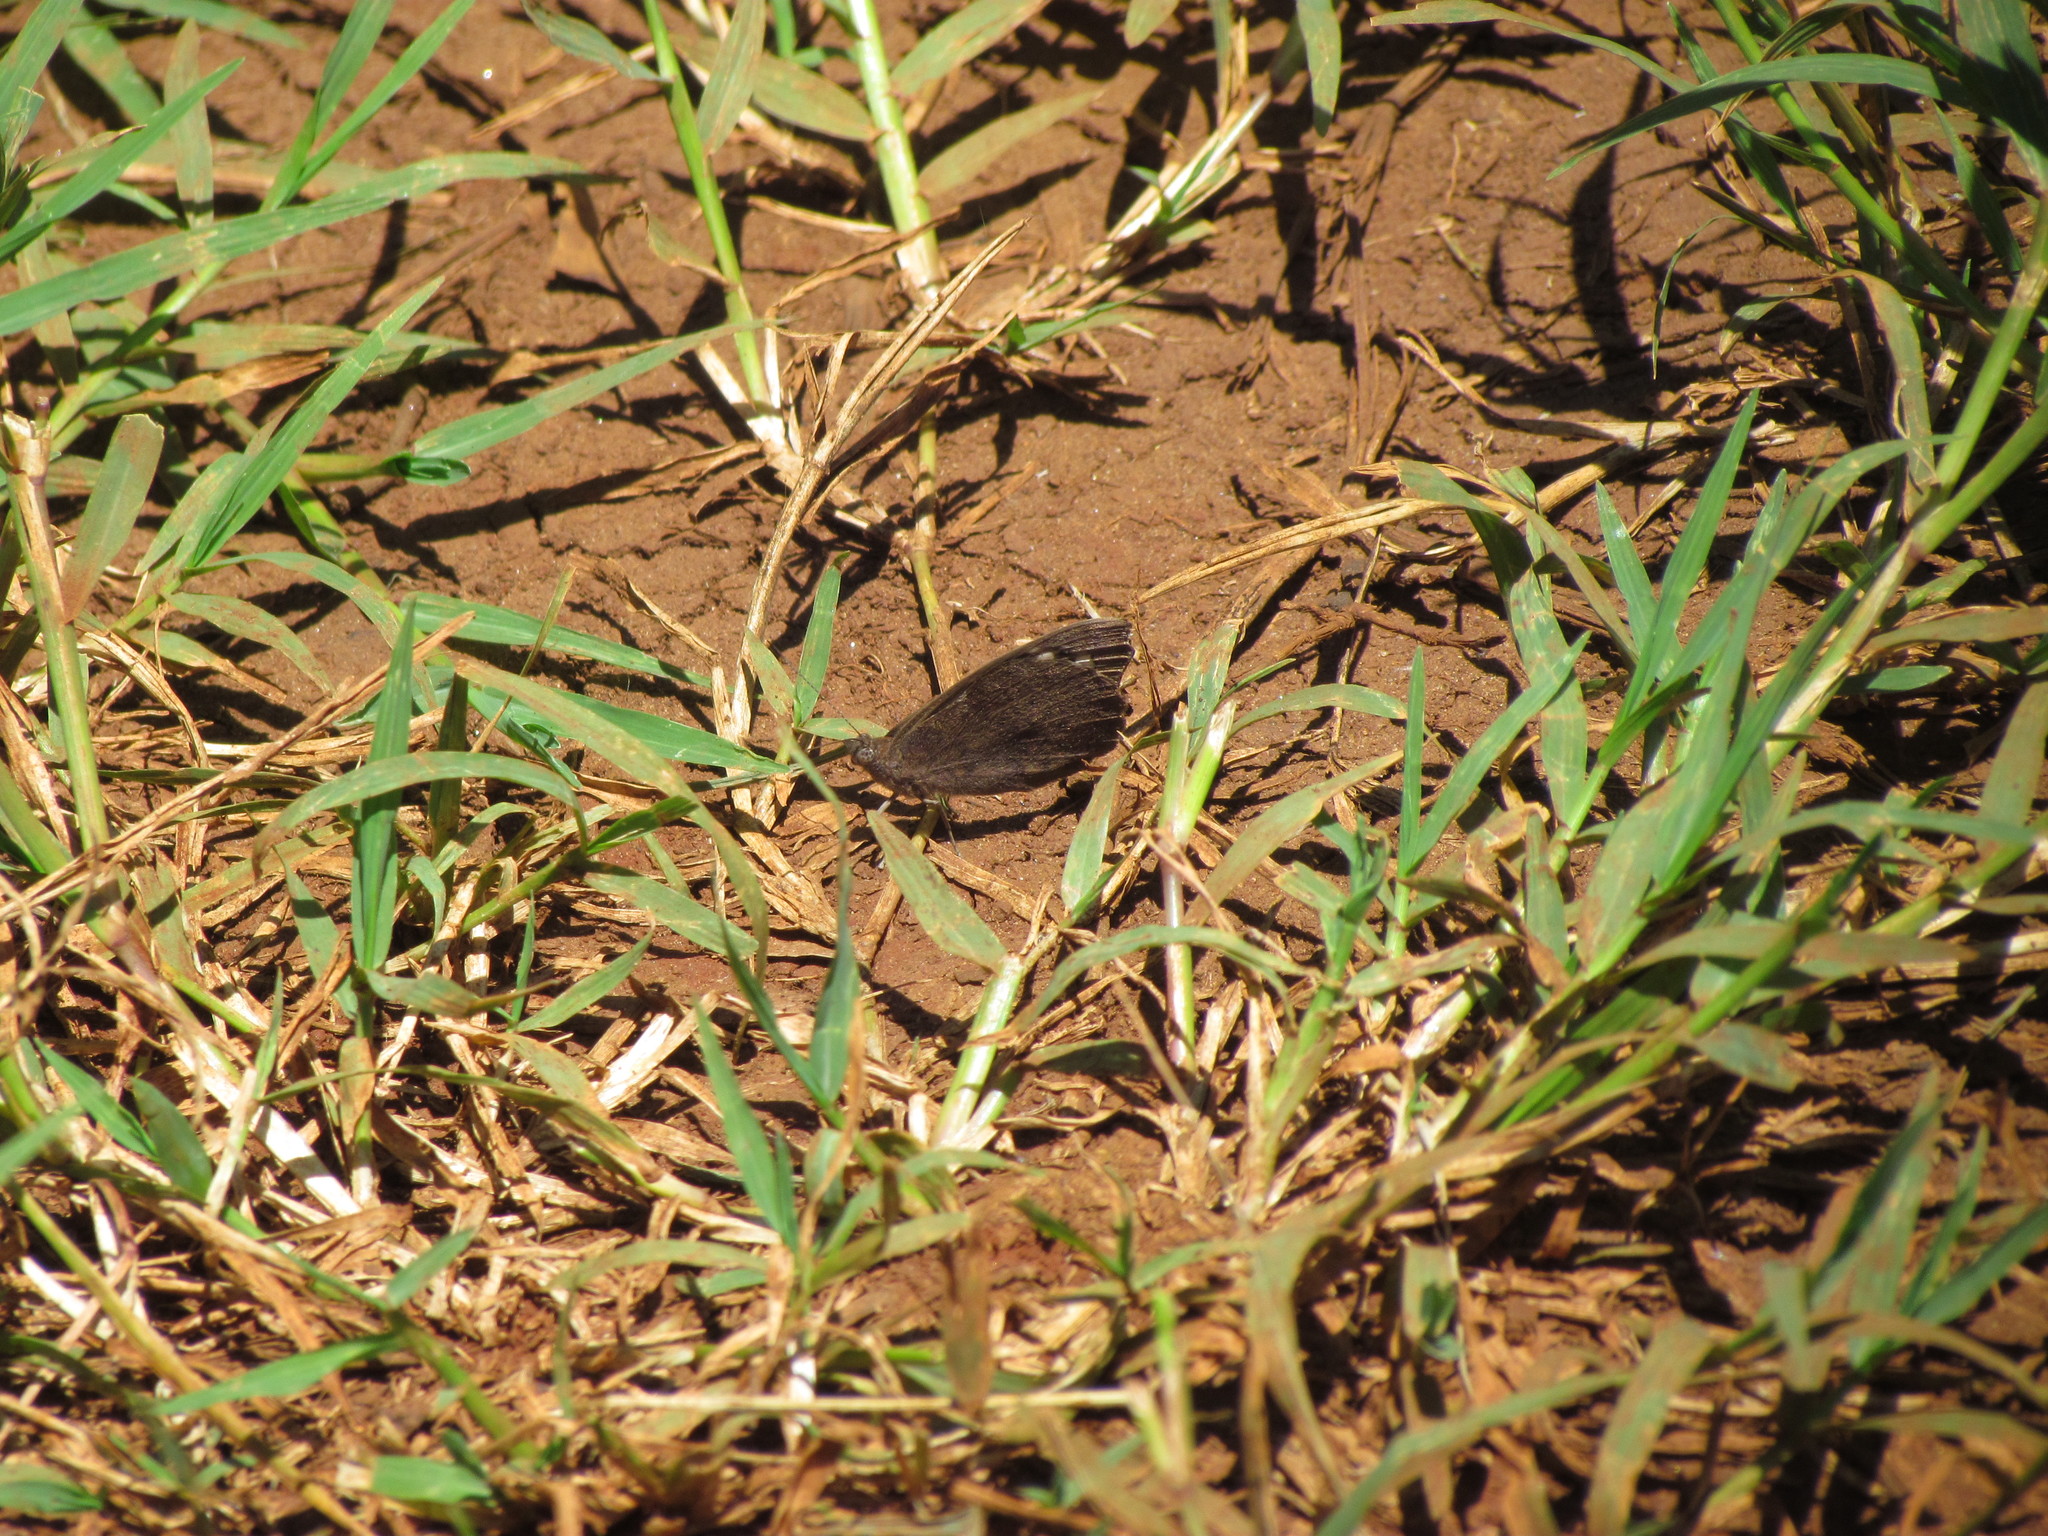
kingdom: Animalia
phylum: Arthropoda
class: Insecta
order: Lepidoptera
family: Nymphalidae
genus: Eunica
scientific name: Eunica tatila
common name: Florida purplewing
